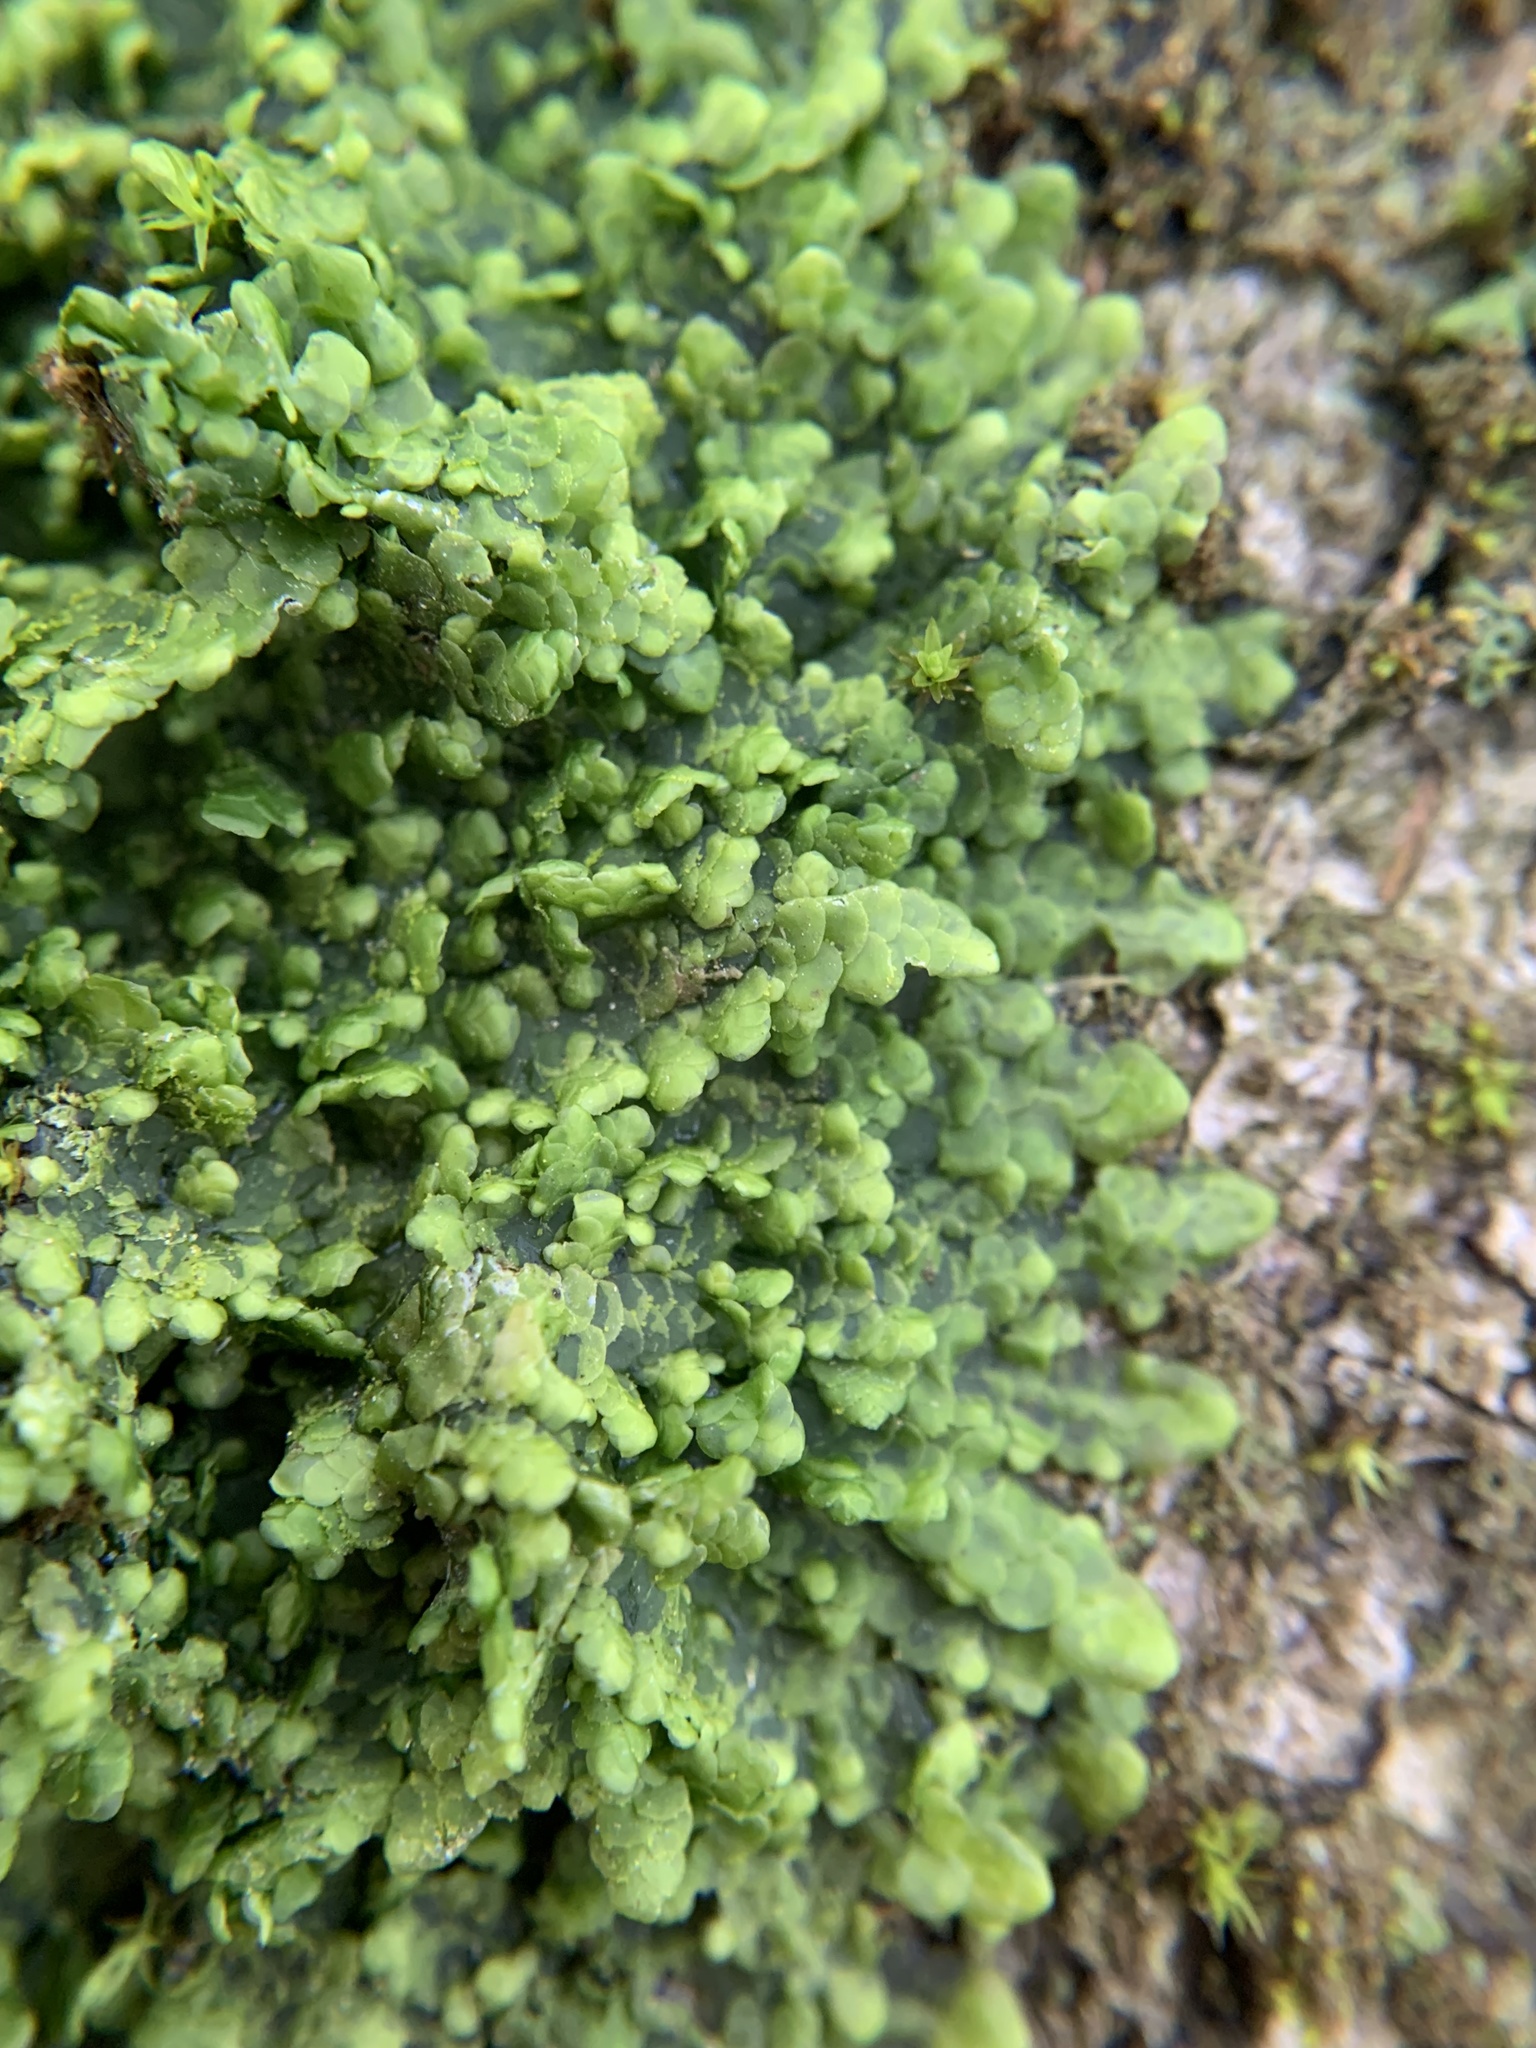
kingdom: Plantae
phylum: Marchantiophyta
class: Jungermanniopsida
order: Porellales
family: Radulaceae
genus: Radula
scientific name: Radula complanata
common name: Flat-leaved scalewort
